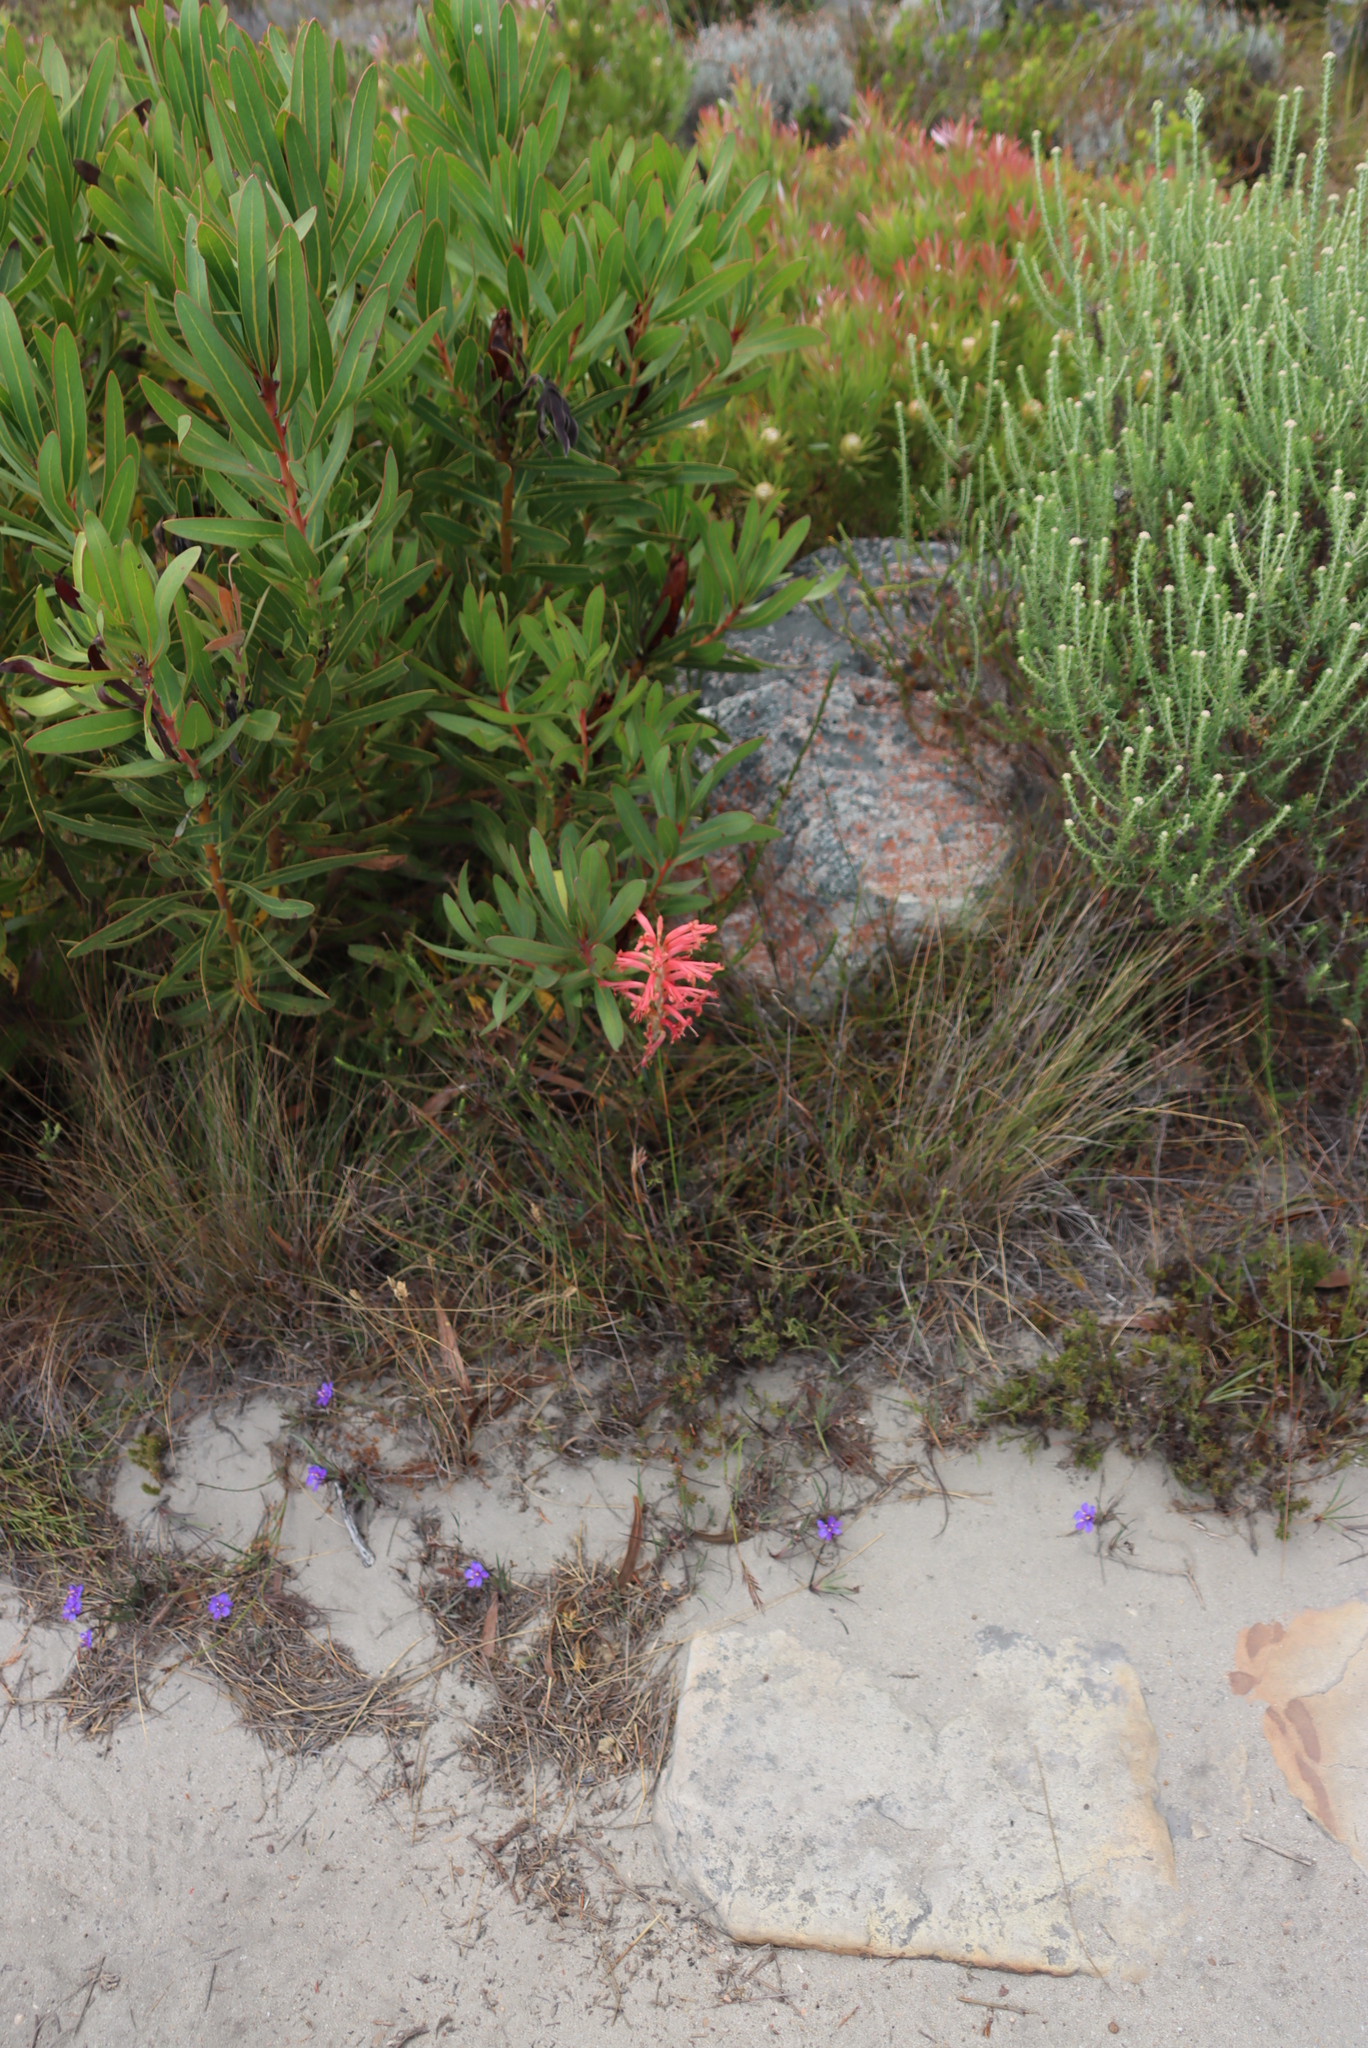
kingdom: Plantae
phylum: Tracheophyta
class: Liliopsida
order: Asparagales
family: Iridaceae
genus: Tritoniopsis
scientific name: Tritoniopsis antholyza
